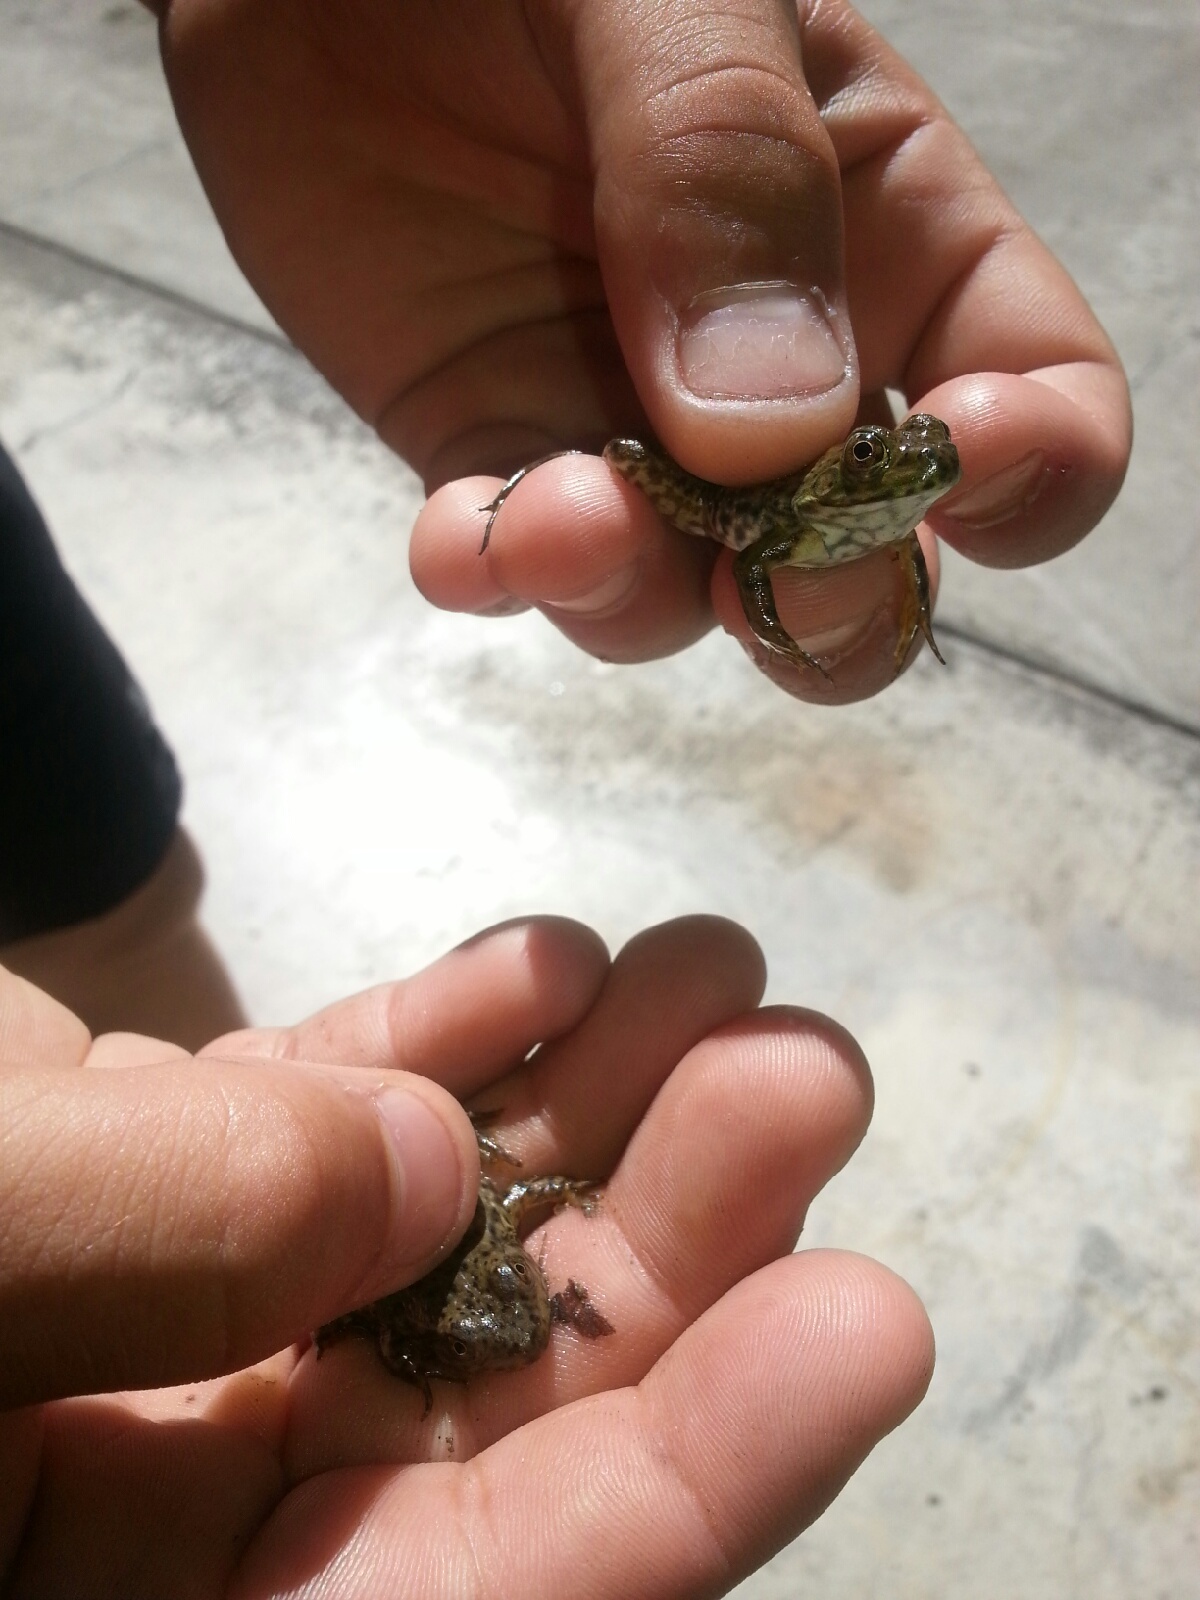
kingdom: Animalia
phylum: Chordata
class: Amphibia
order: Anura
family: Ranidae
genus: Lithobates
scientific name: Lithobates catesbeianus
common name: American bullfrog
